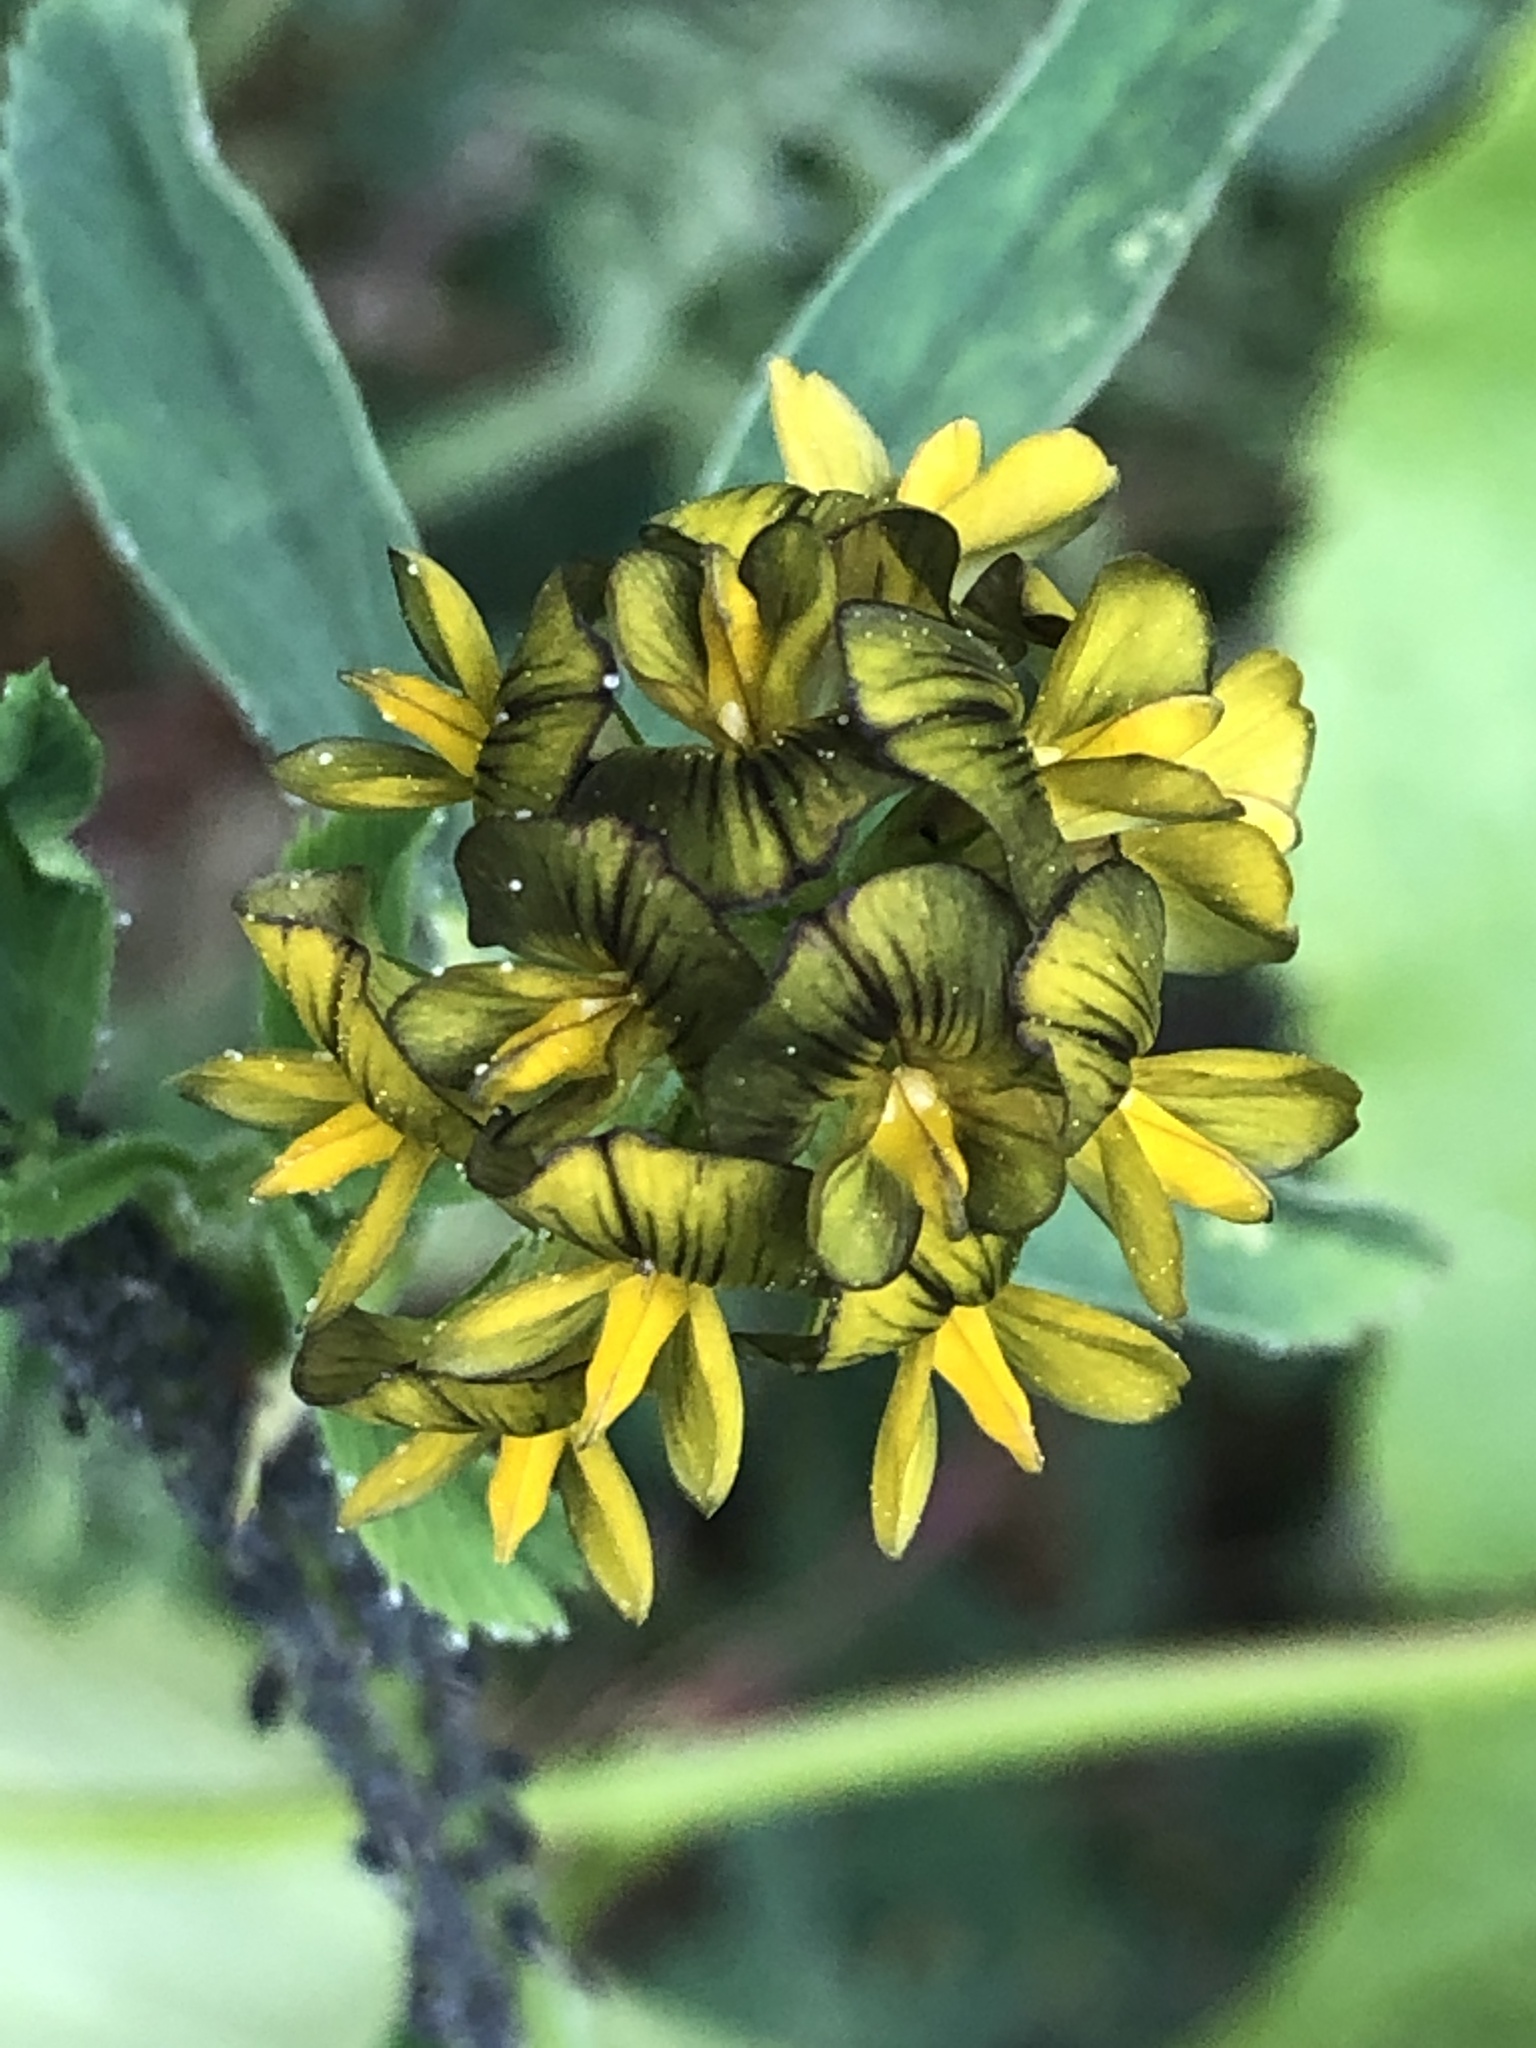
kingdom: Plantae
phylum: Tracheophyta
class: Magnoliopsida
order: Fabales
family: Fabaceae
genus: Medicago
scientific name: Medicago varia
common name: Sand lucerne
